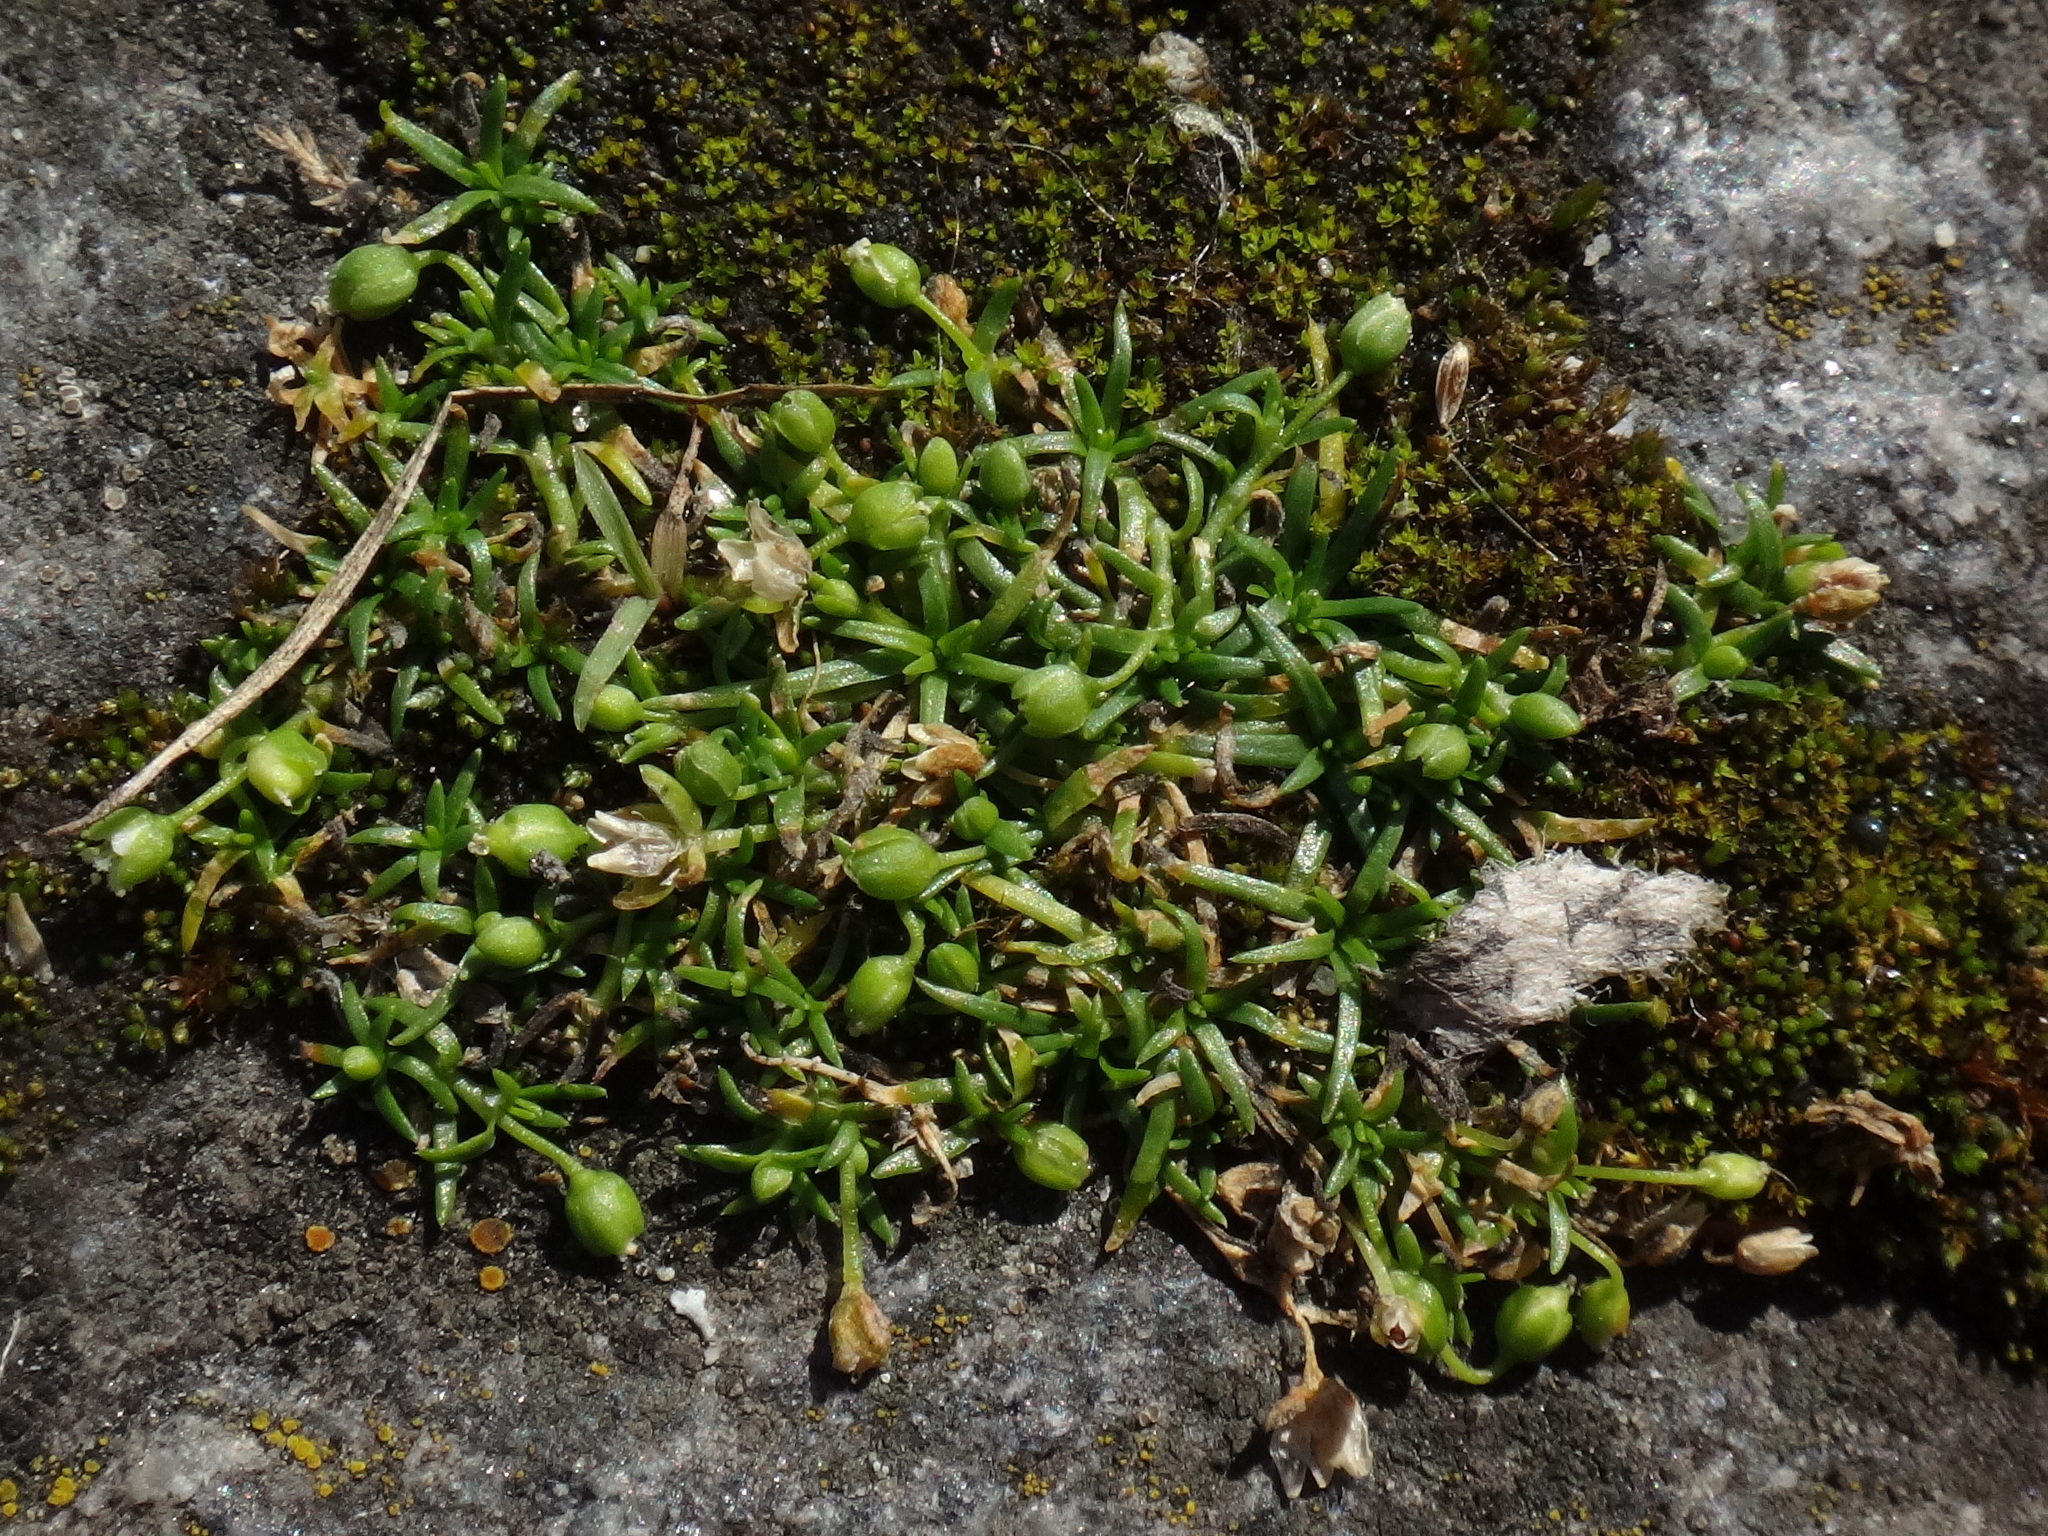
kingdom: Plantae
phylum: Tracheophyta
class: Magnoliopsida
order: Caryophyllales
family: Caryophyllaceae
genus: Sagina
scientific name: Sagina procumbens
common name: Procumbent pearlwort
